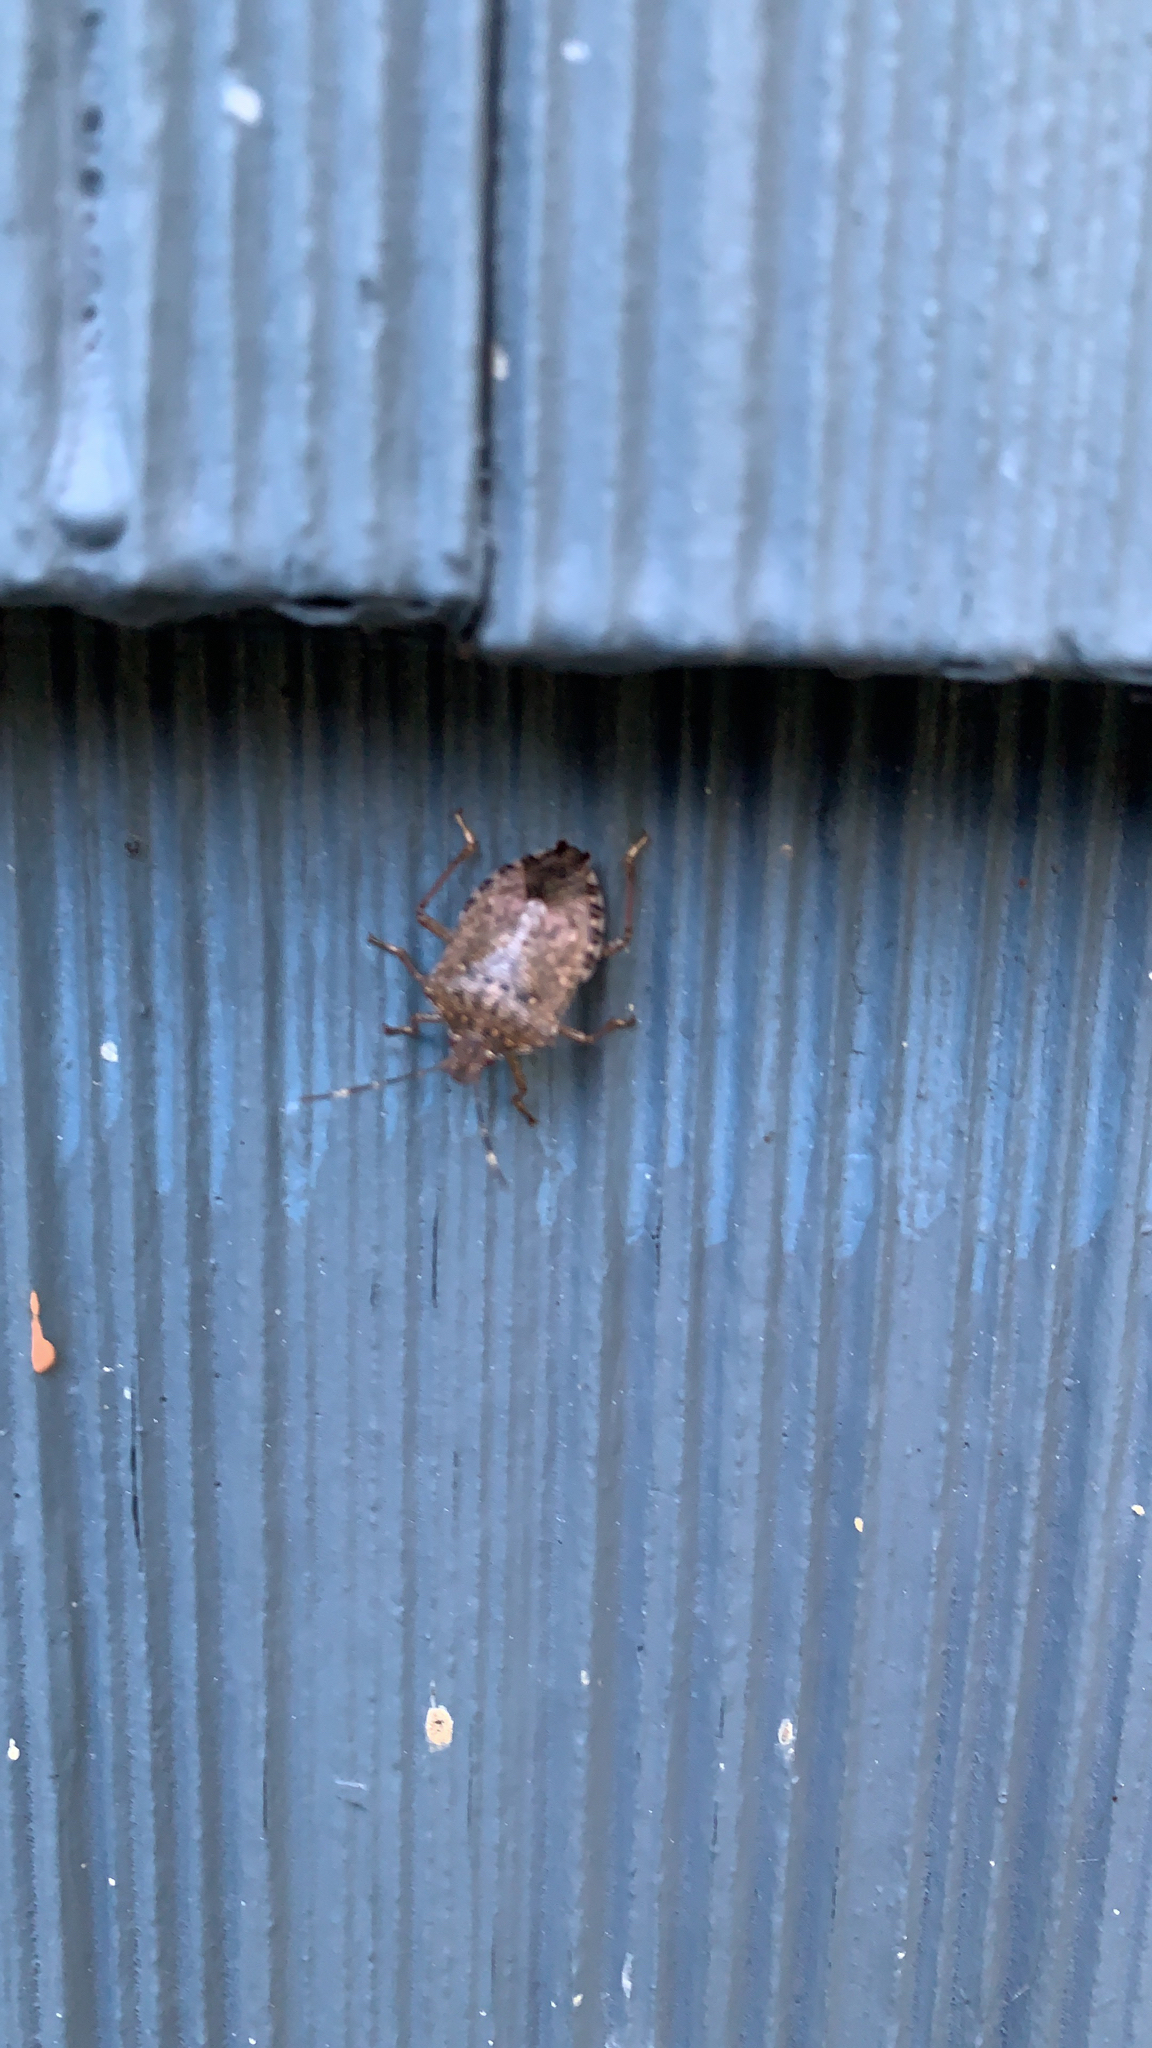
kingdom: Animalia
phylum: Arthropoda
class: Insecta
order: Hemiptera
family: Pentatomidae
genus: Halyomorpha
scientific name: Halyomorpha halys
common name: Brown marmorated stink bug
